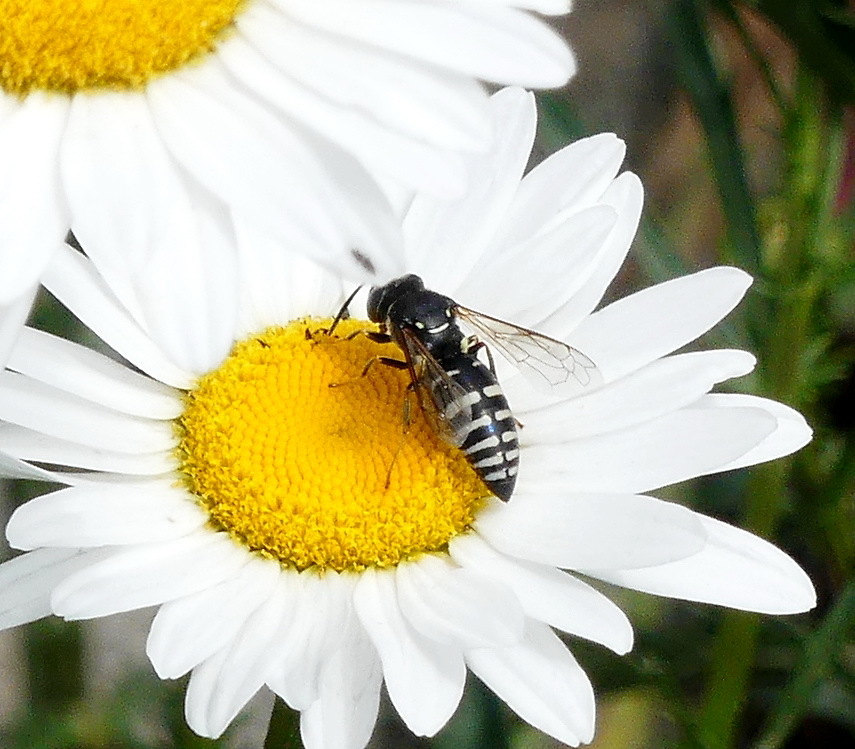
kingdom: Animalia
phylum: Arthropoda
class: Insecta
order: Hymenoptera
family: Crabronidae
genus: Bicyrtes
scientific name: Bicyrtes ventralis
